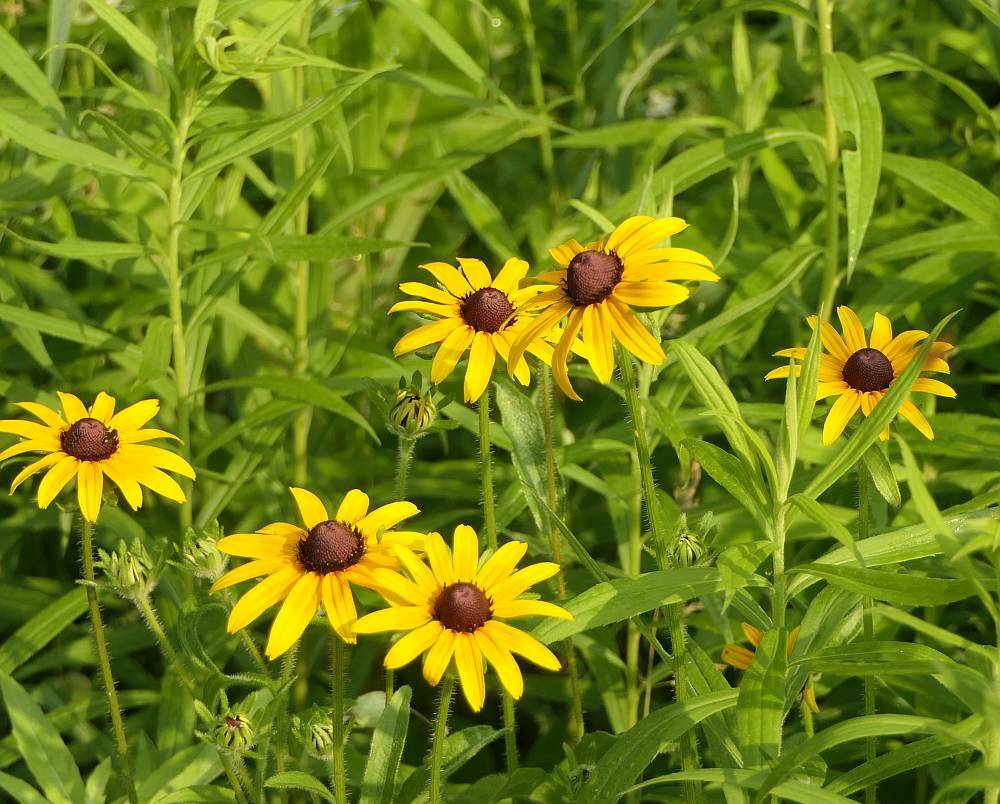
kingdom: Plantae
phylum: Tracheophyta
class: Magnoliopsida
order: Asterales
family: Asteraceae
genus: Rudbeckia
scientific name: Rudbeckia hirta
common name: Black-eyed-susan
